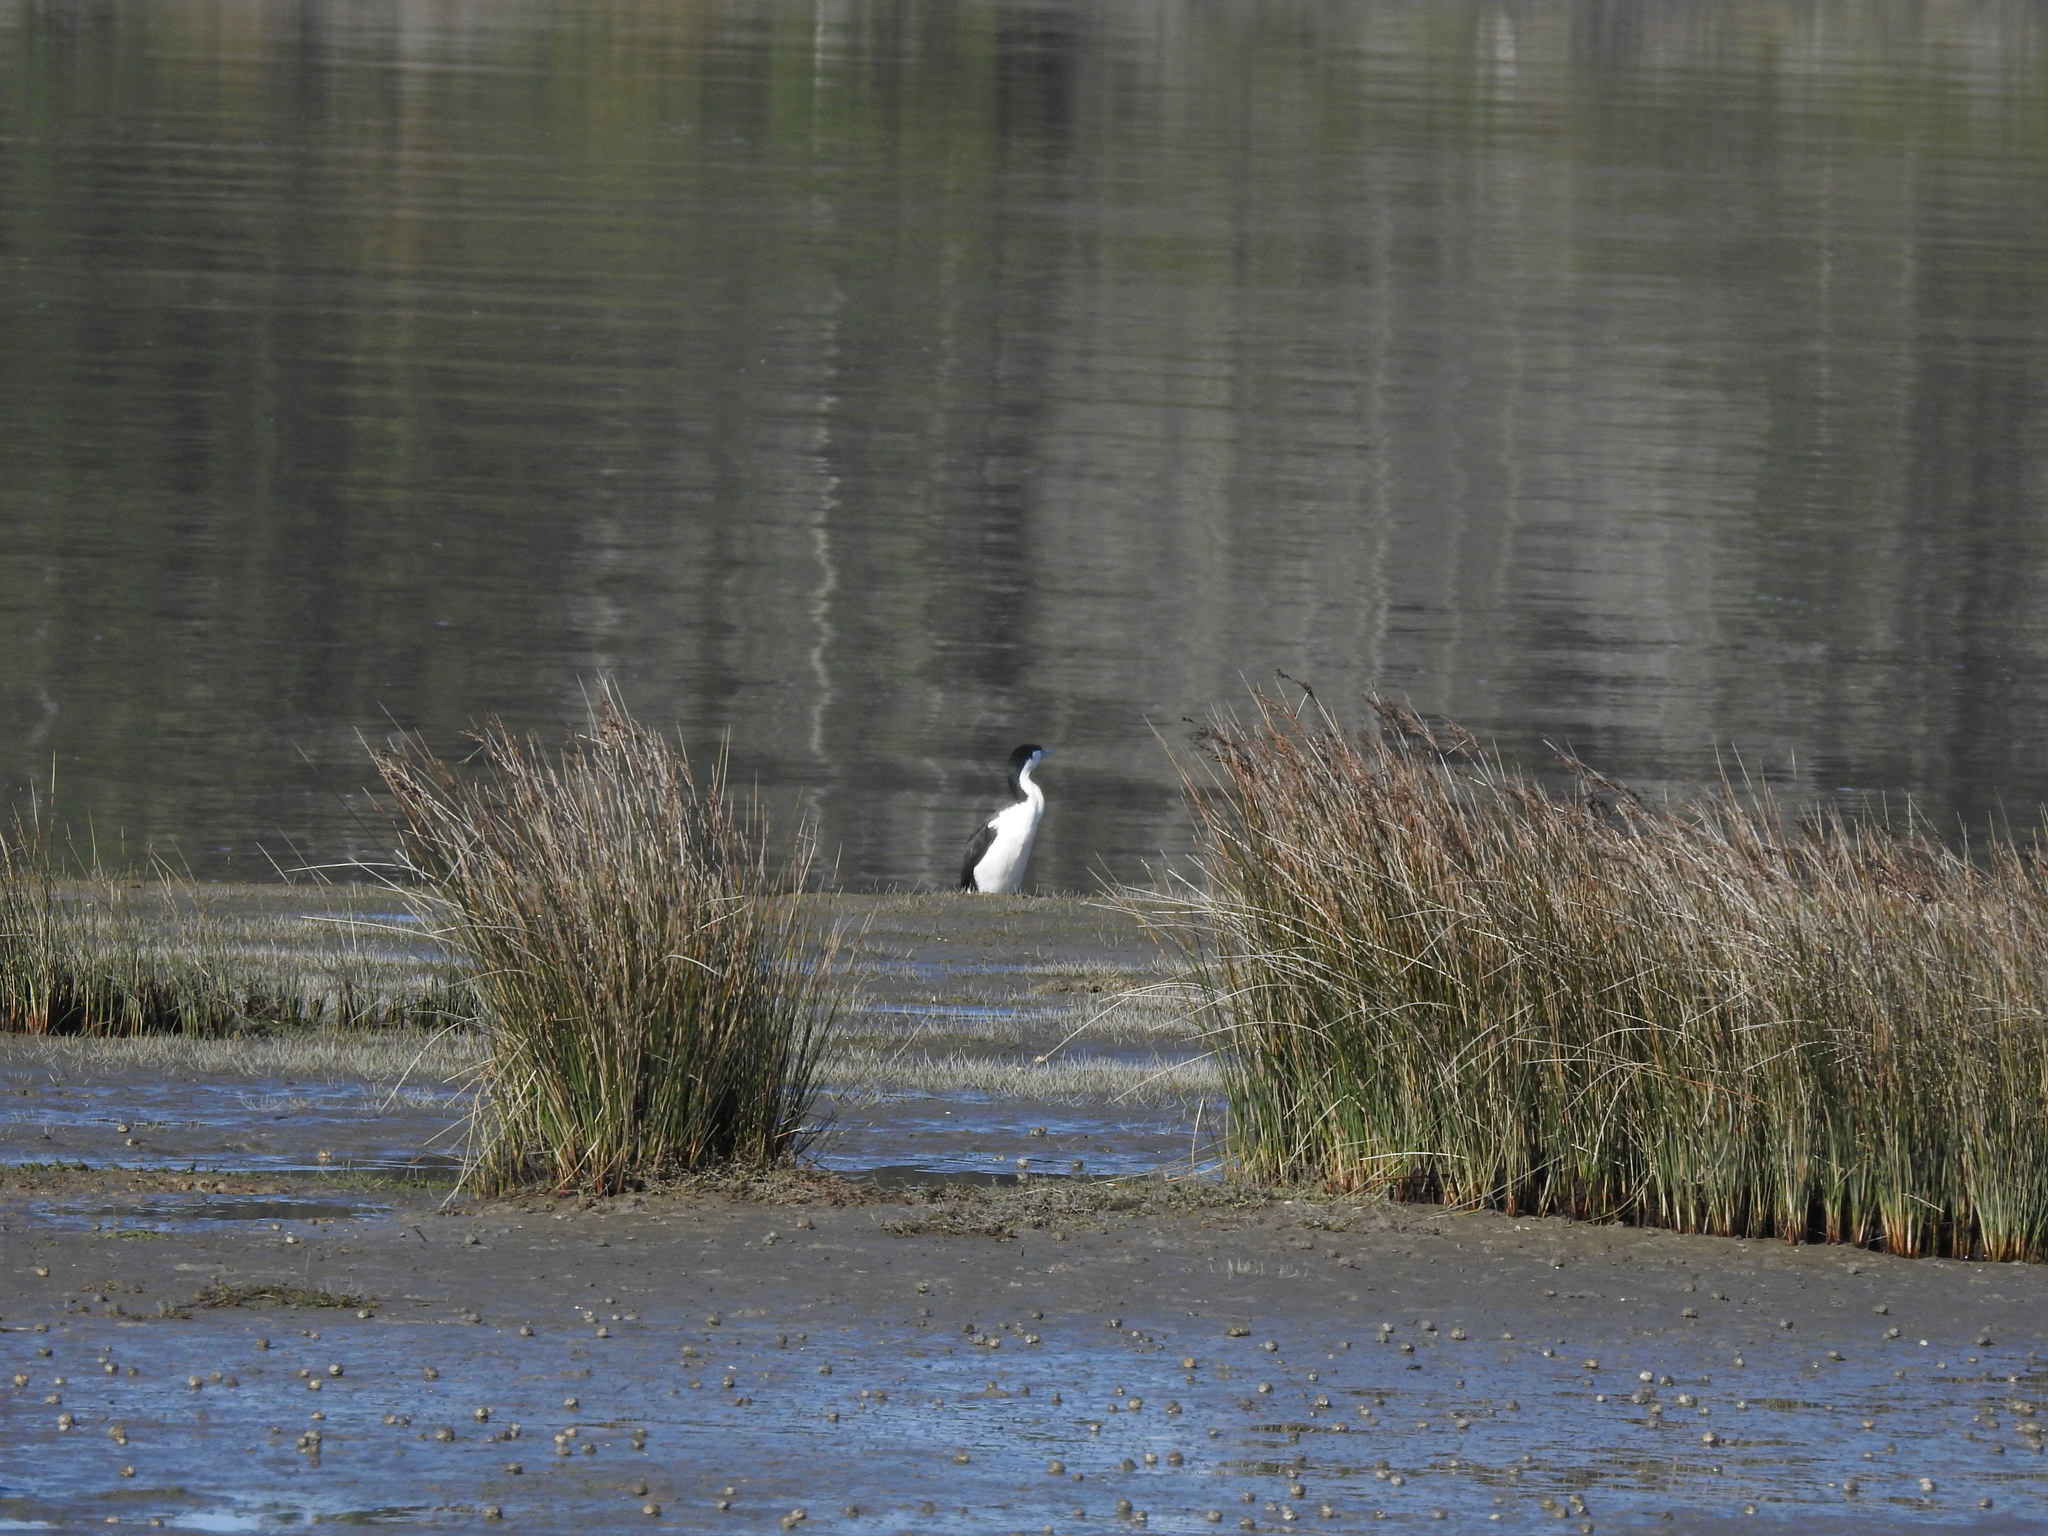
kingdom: Animalia
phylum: Chordata
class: Aves
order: Suliformes
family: Phalacrocoracidae
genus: Phalacrocorax
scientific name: Phalacrocorax varius
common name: Pied cormorant
